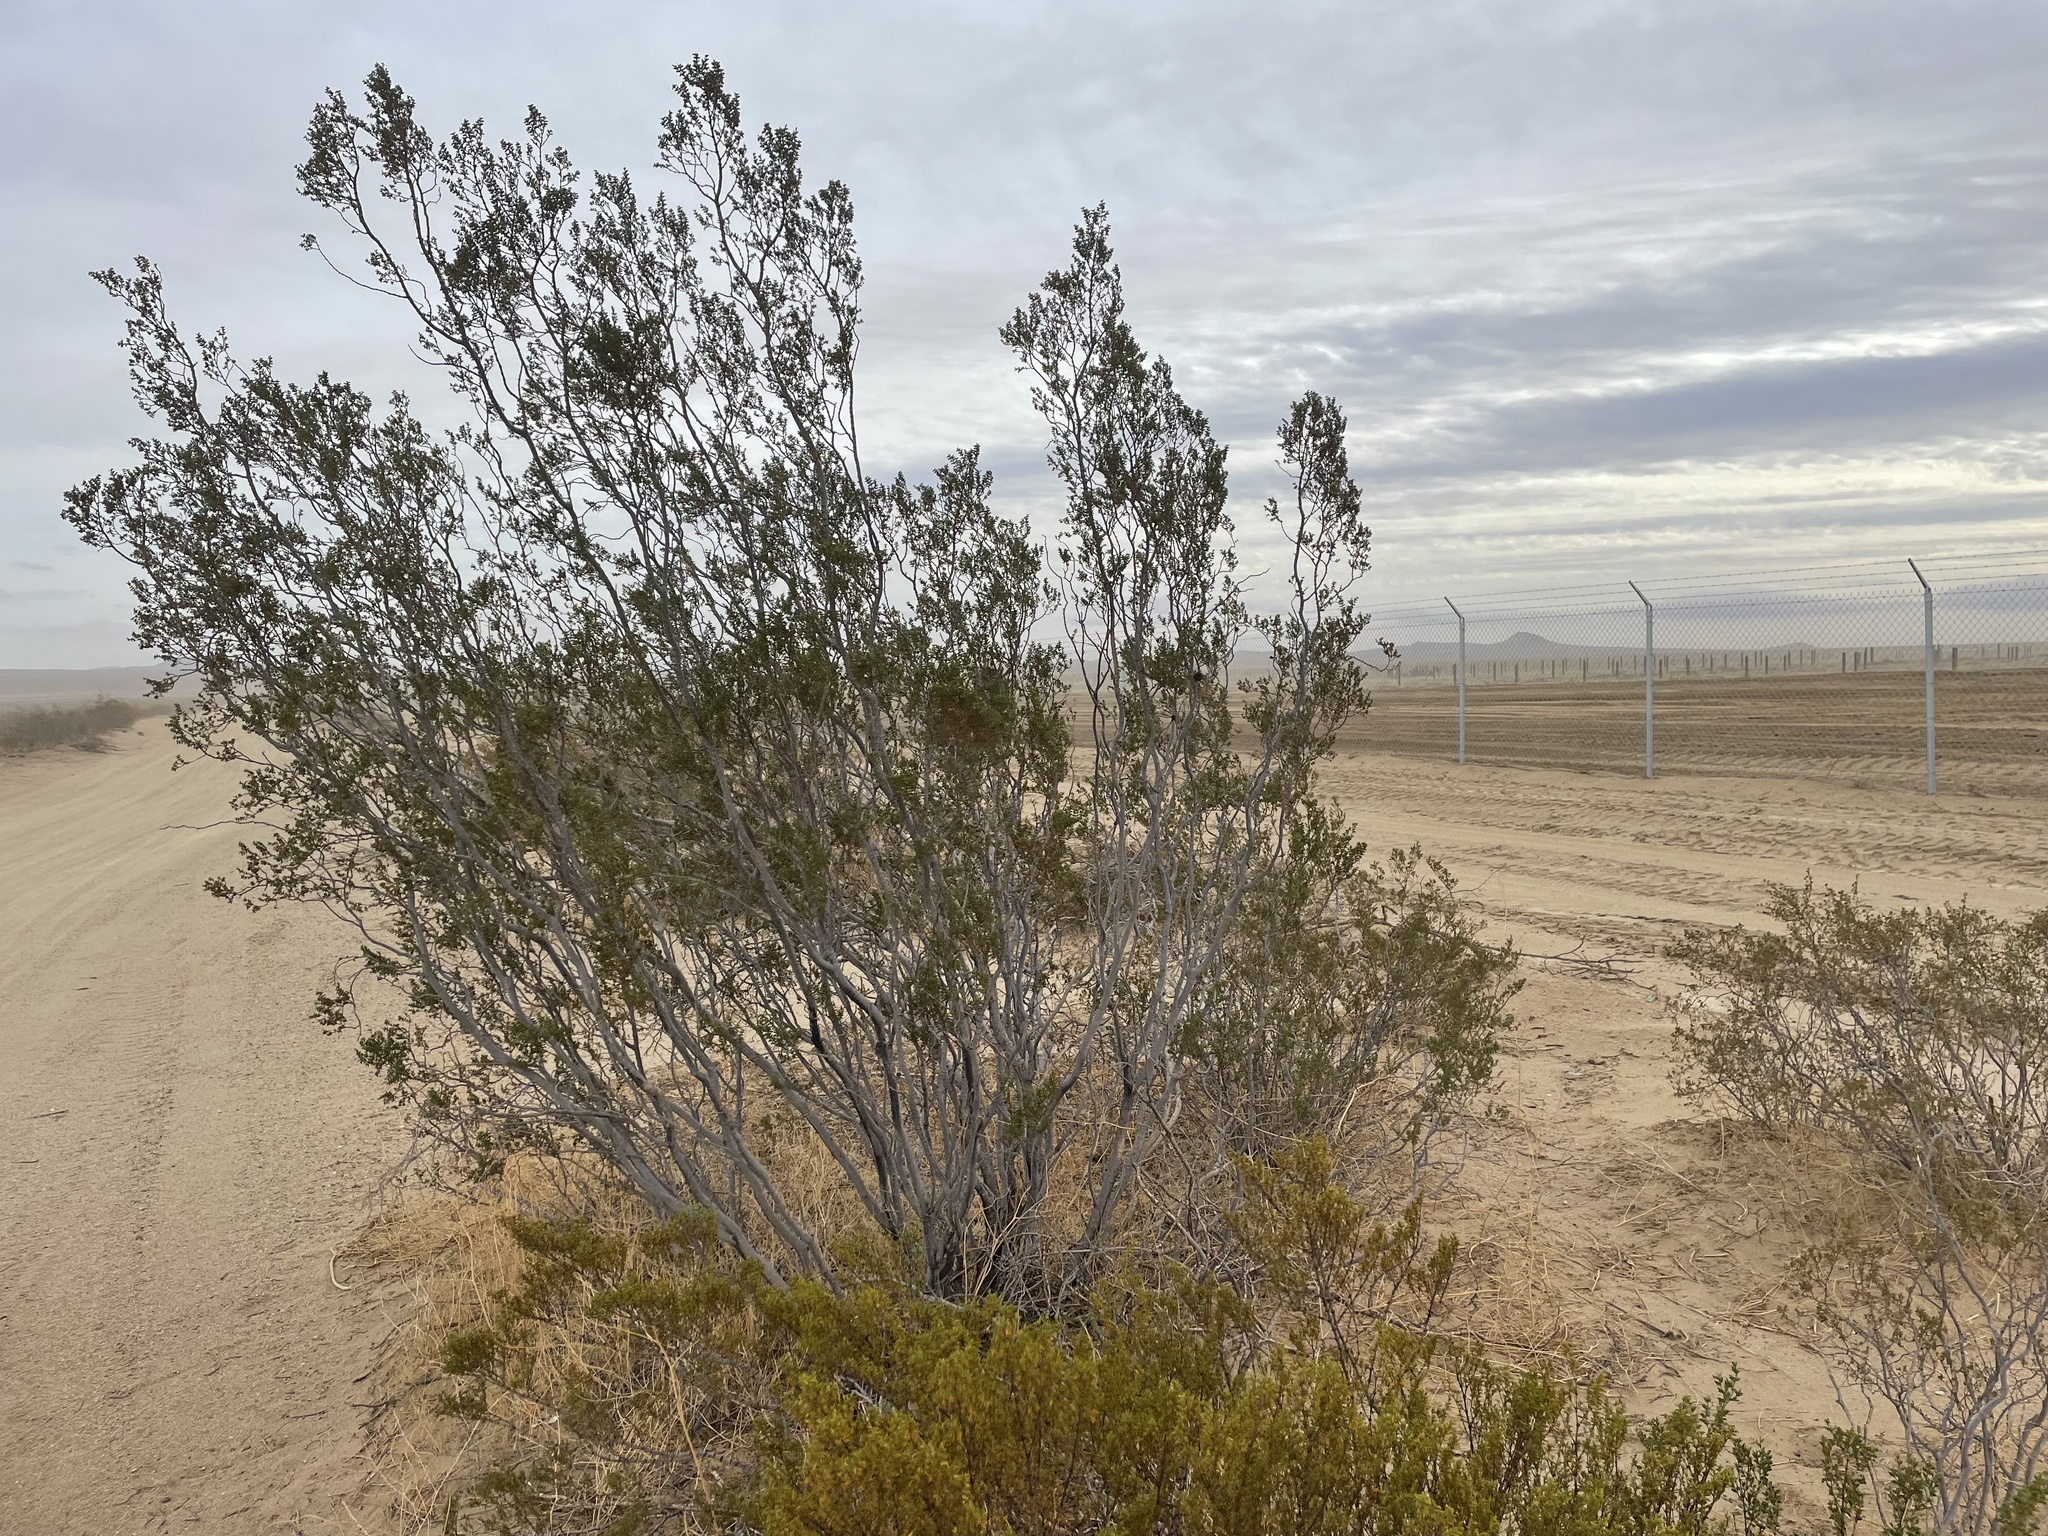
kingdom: Plantae
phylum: Tracheophyta
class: Magnoliopsida
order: Zygophyllales
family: Zygophyllaceae
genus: Larrea
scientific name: Larrea tridentata
